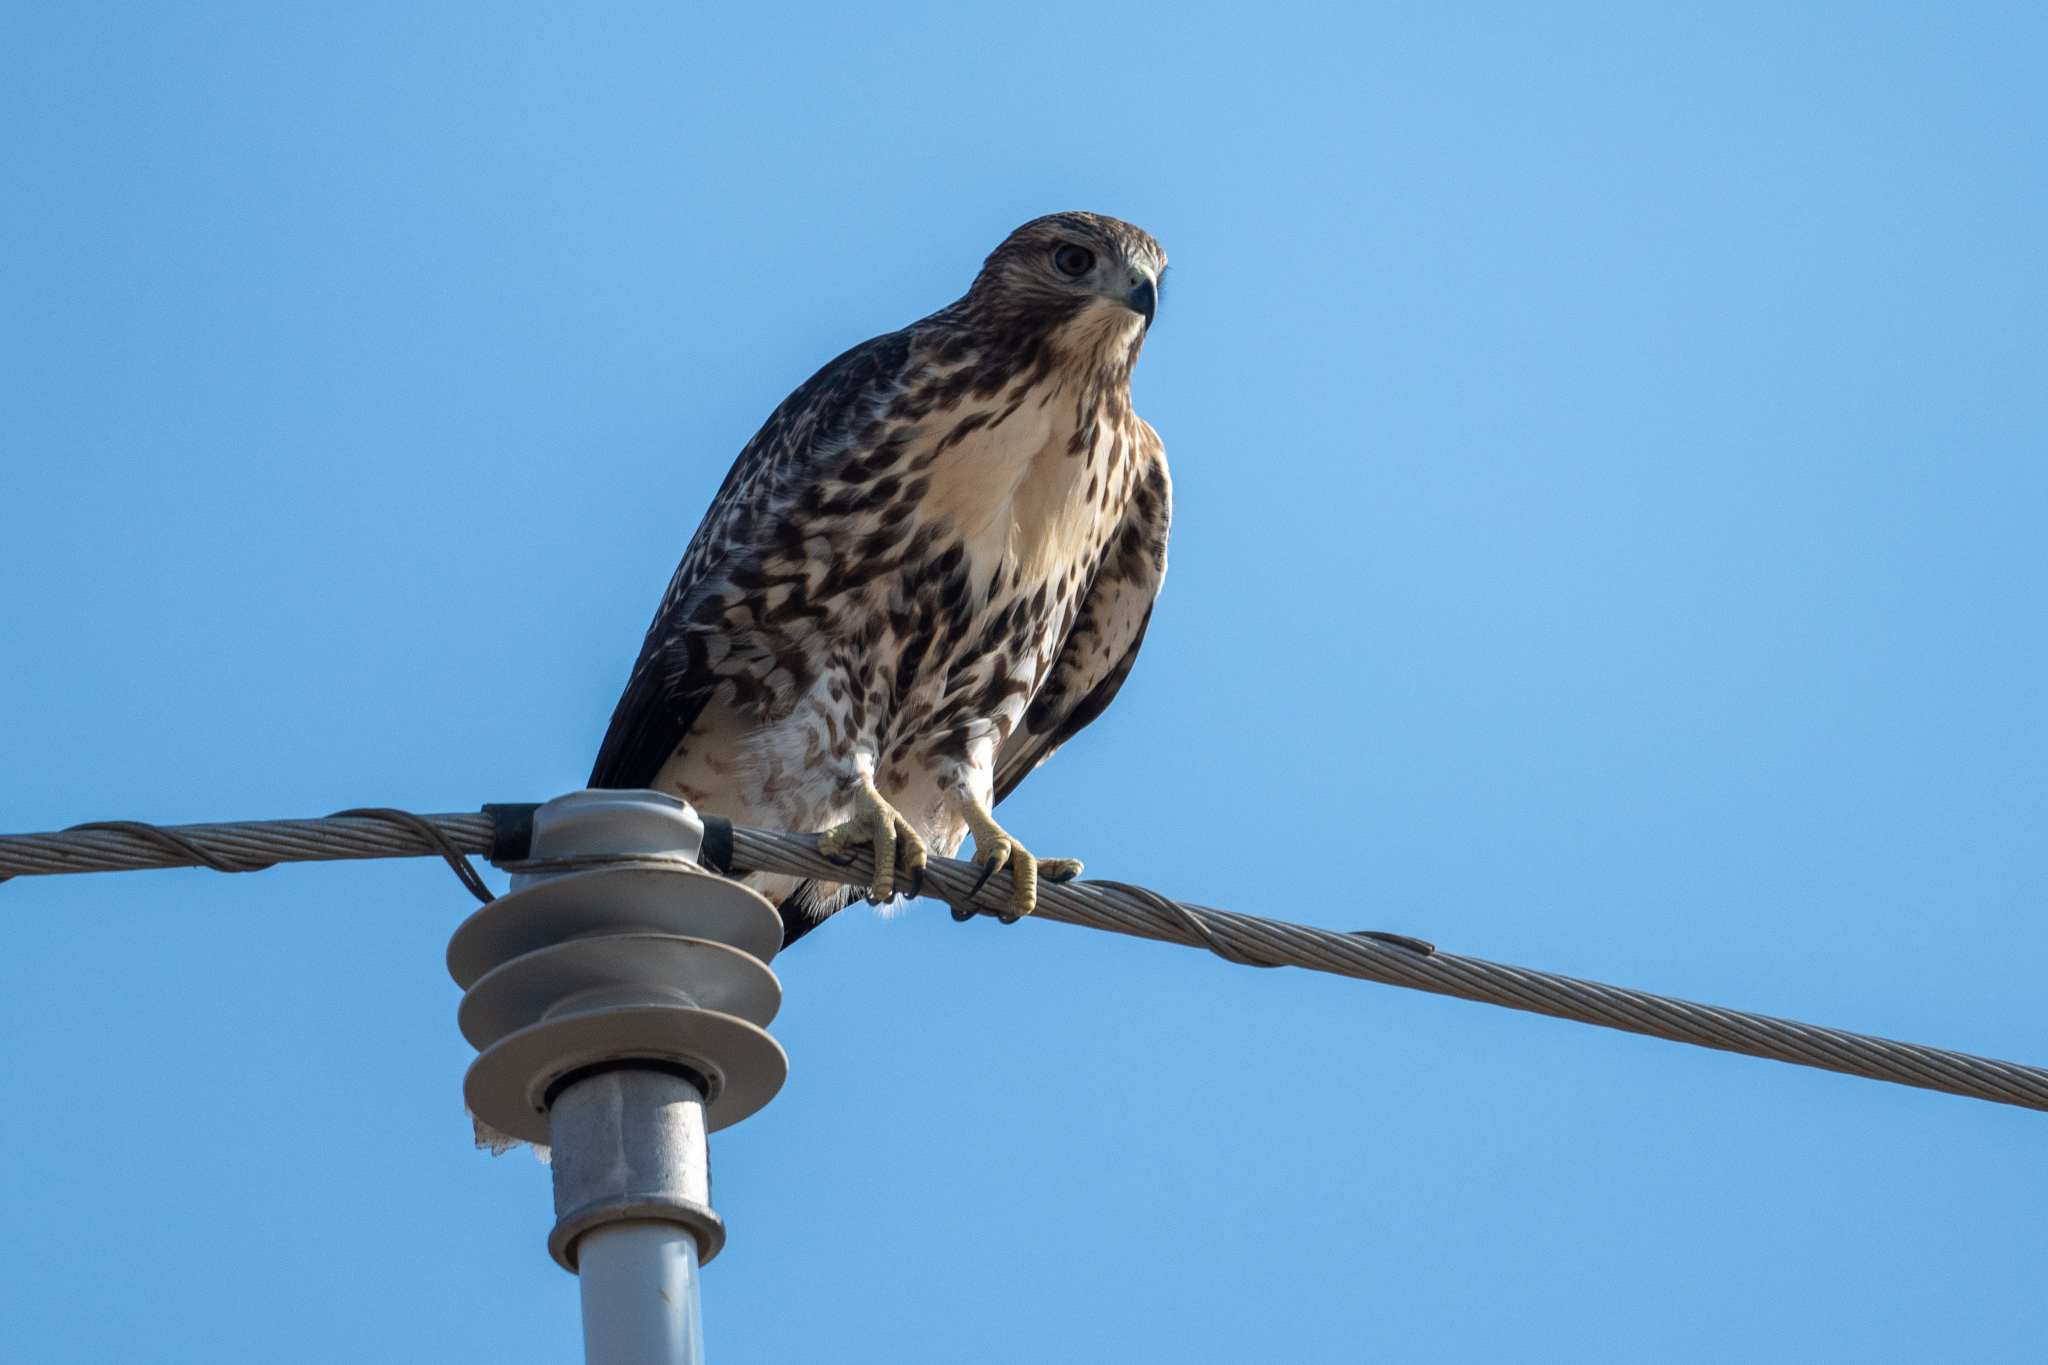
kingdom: Animalia
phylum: Chordata
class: Aves
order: Accipitriformes
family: Accipitridae
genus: Buteo
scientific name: Buteo jamaicensis
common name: Red-tailed hawk
